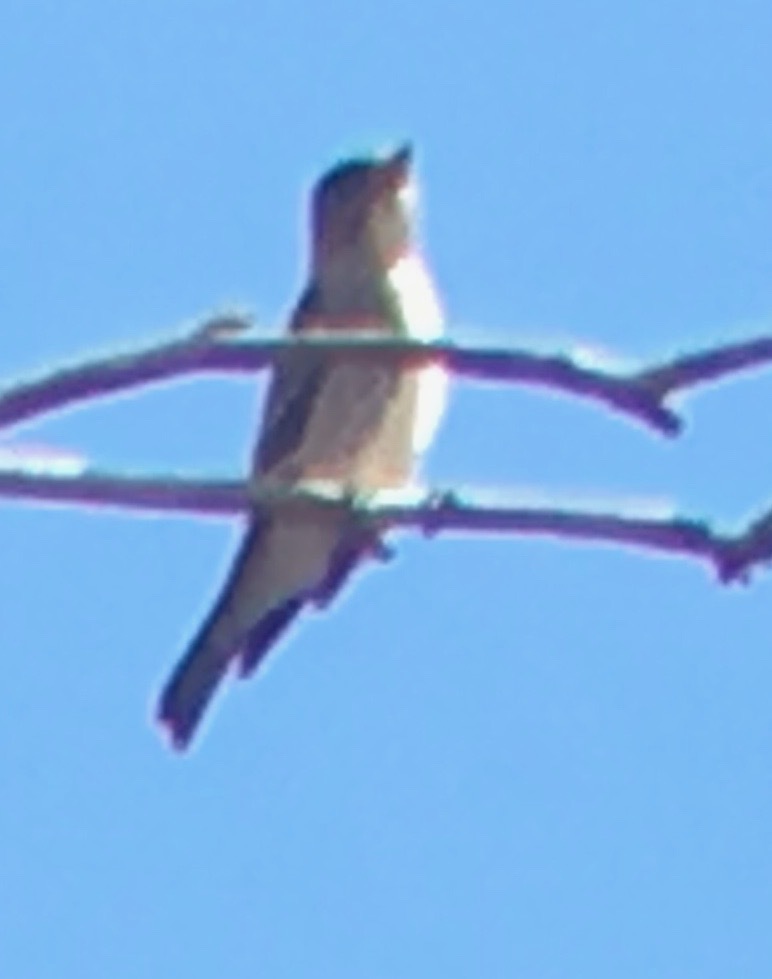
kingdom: Animalia
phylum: Chordata
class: Aves
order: Passeriformes
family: Tyrannidae
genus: Contopus
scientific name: Contopus cooperi
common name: Olive-sided flycatcher
